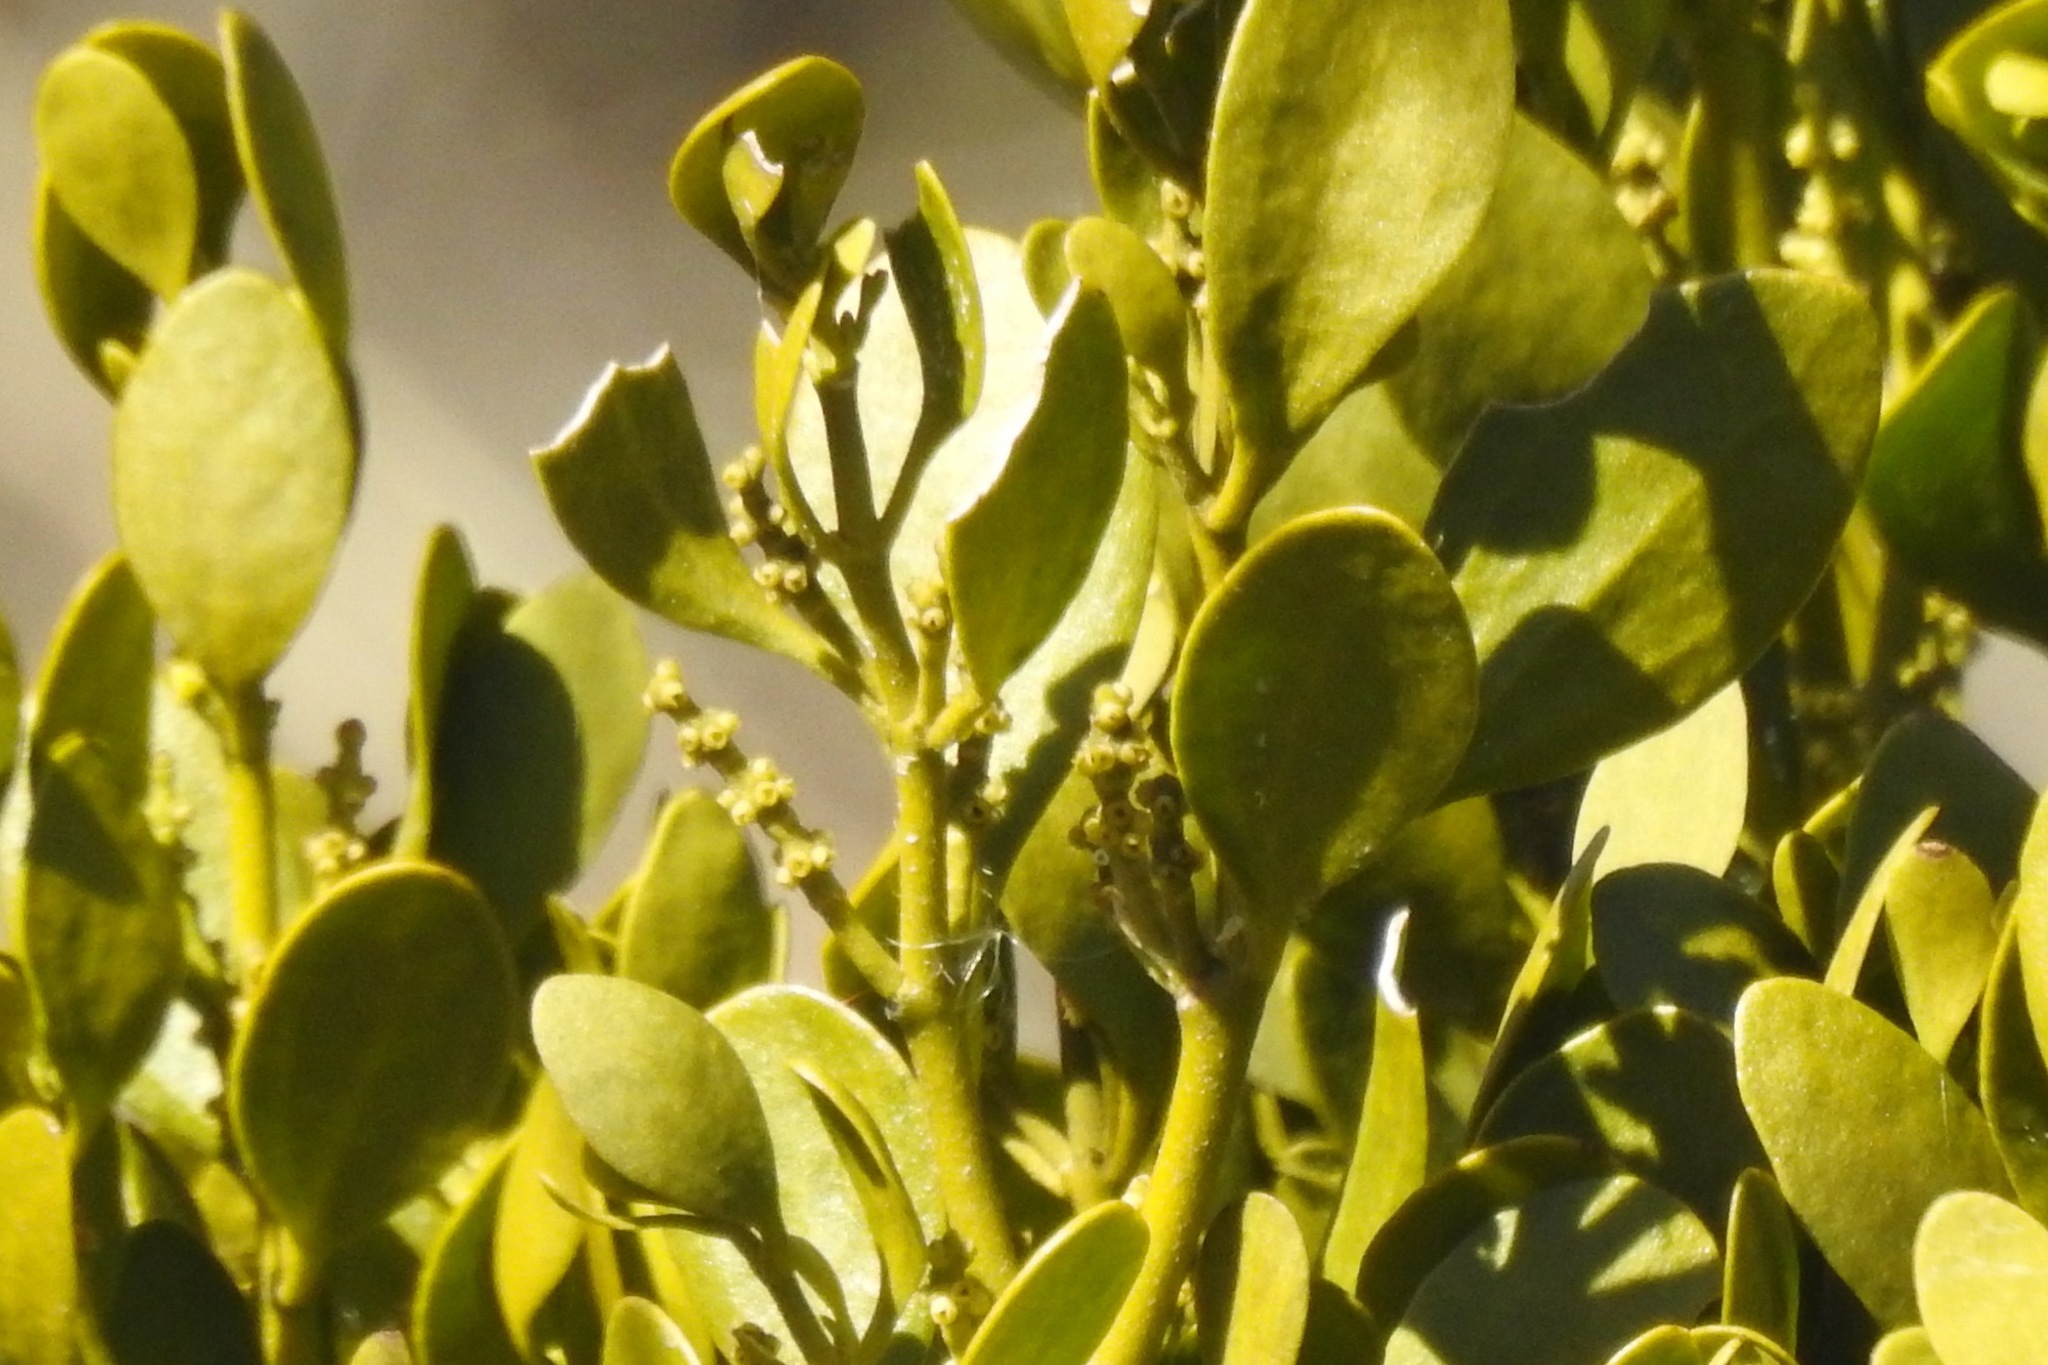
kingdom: Plantae
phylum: Tracheophyta
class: Magnoliopsida
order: Santalales
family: Viscaceae
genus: Phoradendron
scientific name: Phoradendron leucarpum
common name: Pacific mistletoe
